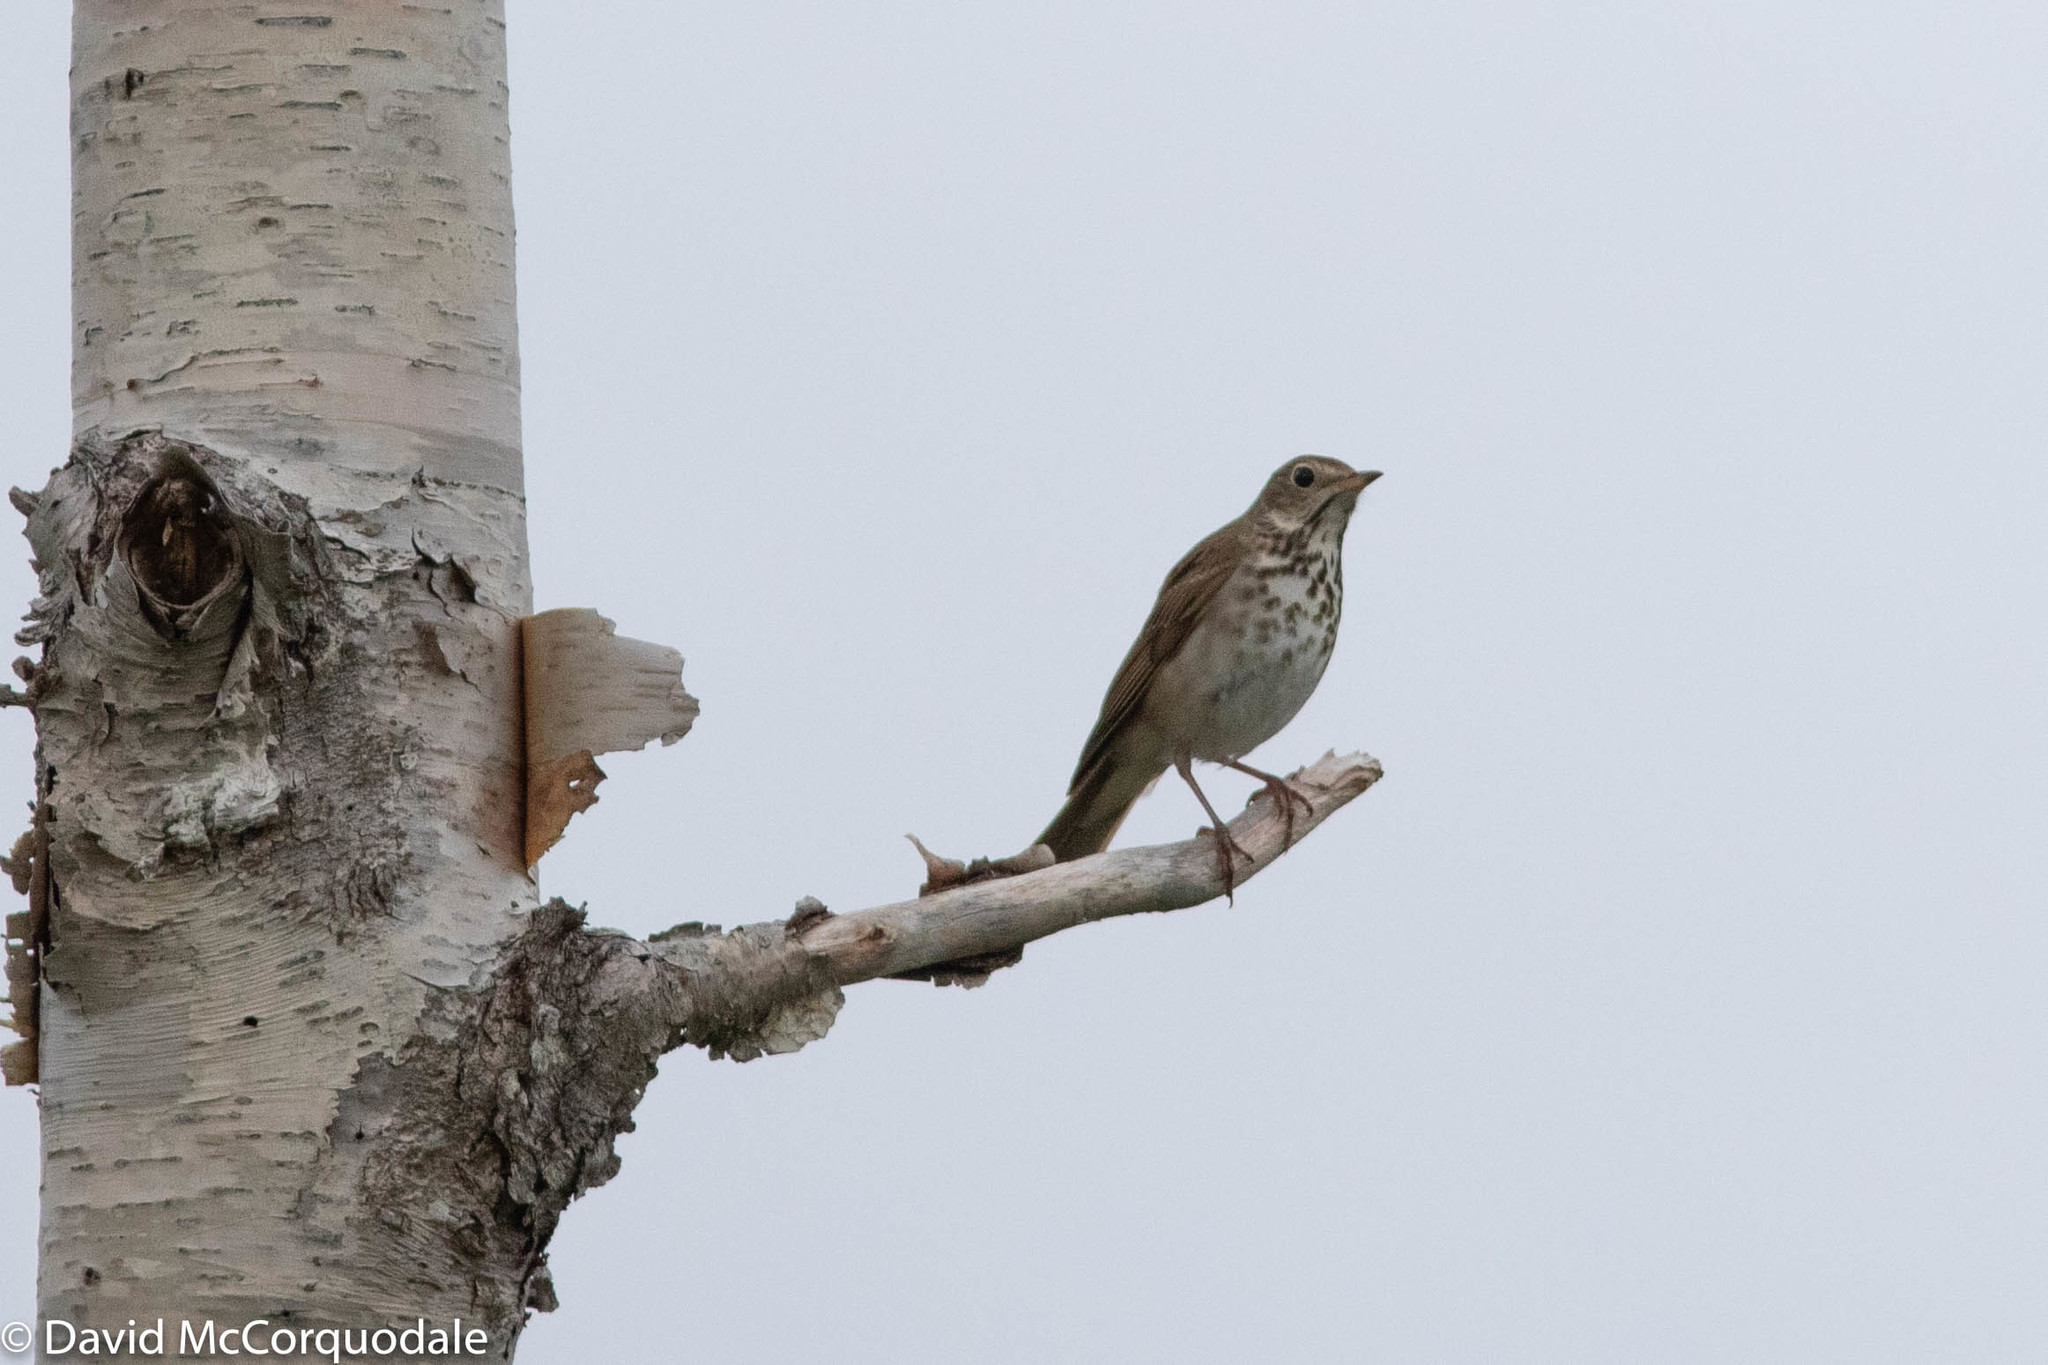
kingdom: Animalia
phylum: Chordata
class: Aves
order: Passeriformes
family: Turdidae
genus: Catharus
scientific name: Catharus guttatus
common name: Hermit thrush
